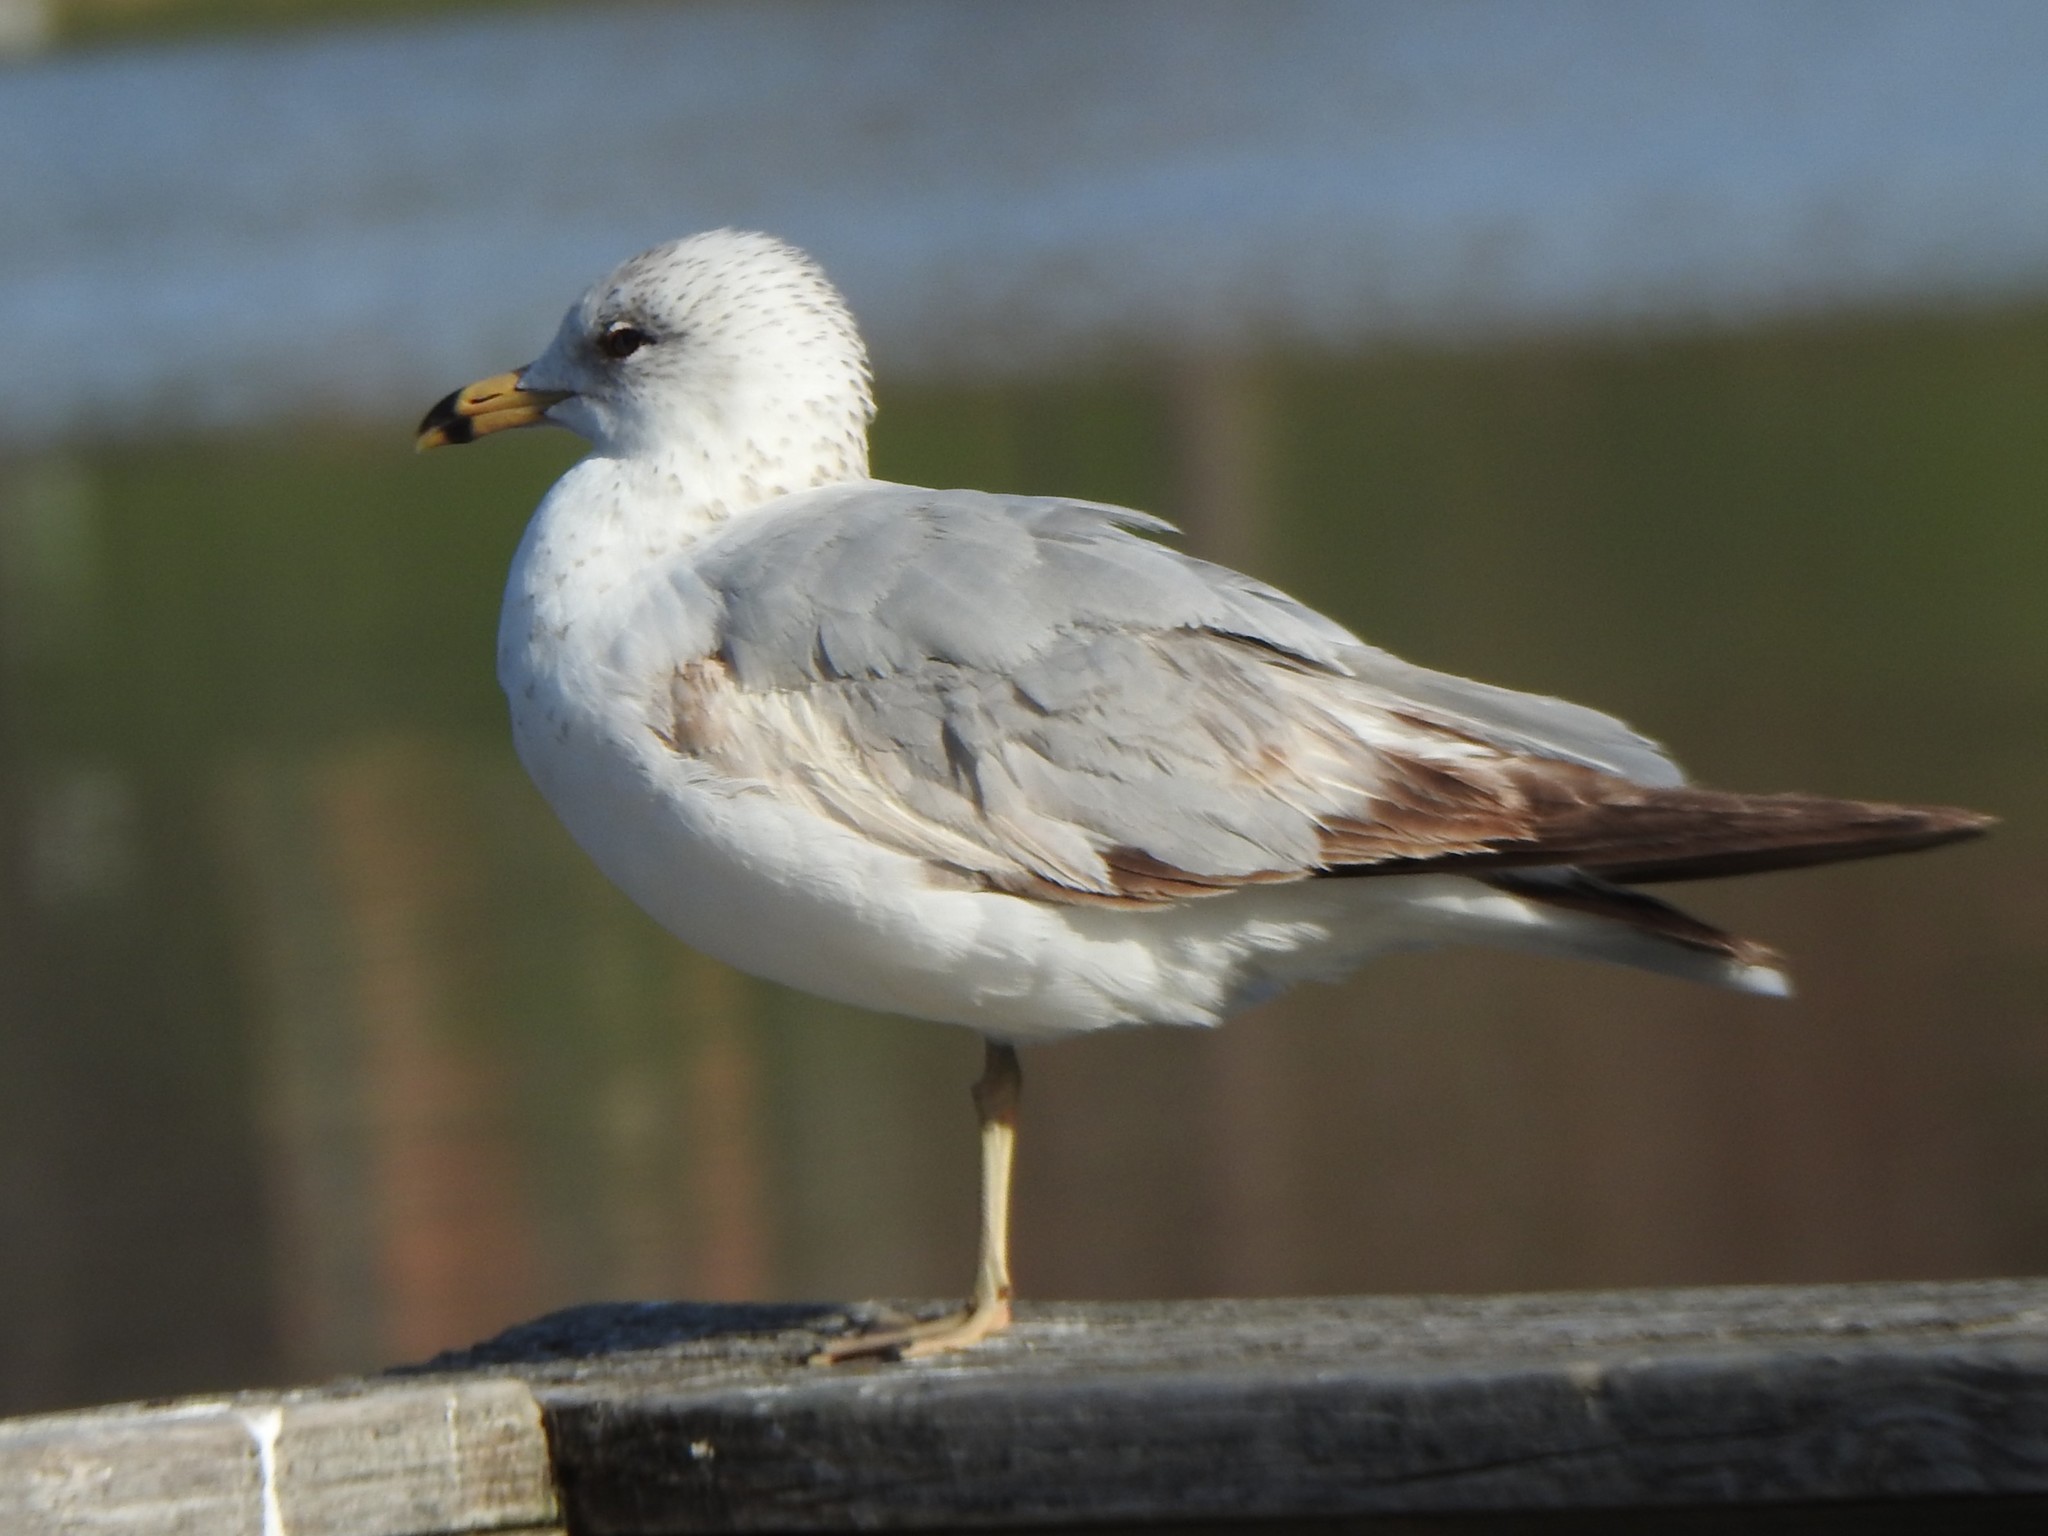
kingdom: Animalia
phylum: Chordata
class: Aves
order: Charadriiformes
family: Laridae
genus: Larus
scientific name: Larus delawarensis
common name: Ring-billed gull
